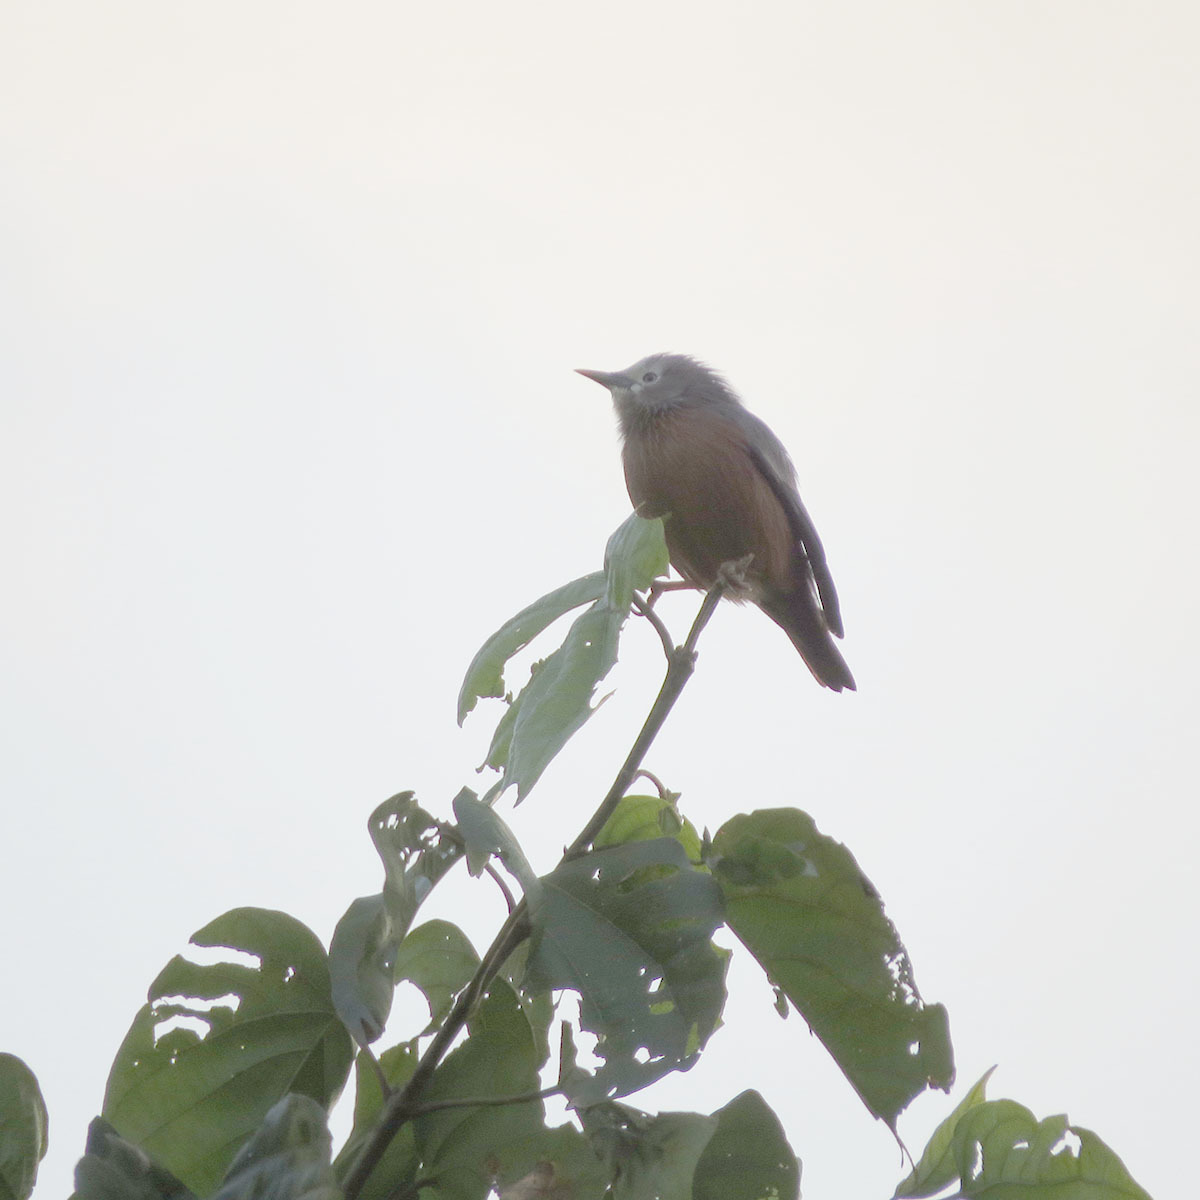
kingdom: Animalia
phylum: Chordata
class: Aves
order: Passeriformes
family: Sturnidae
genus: Sturnia
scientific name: Sturnia malabarica
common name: Chestnut-tailed starling
